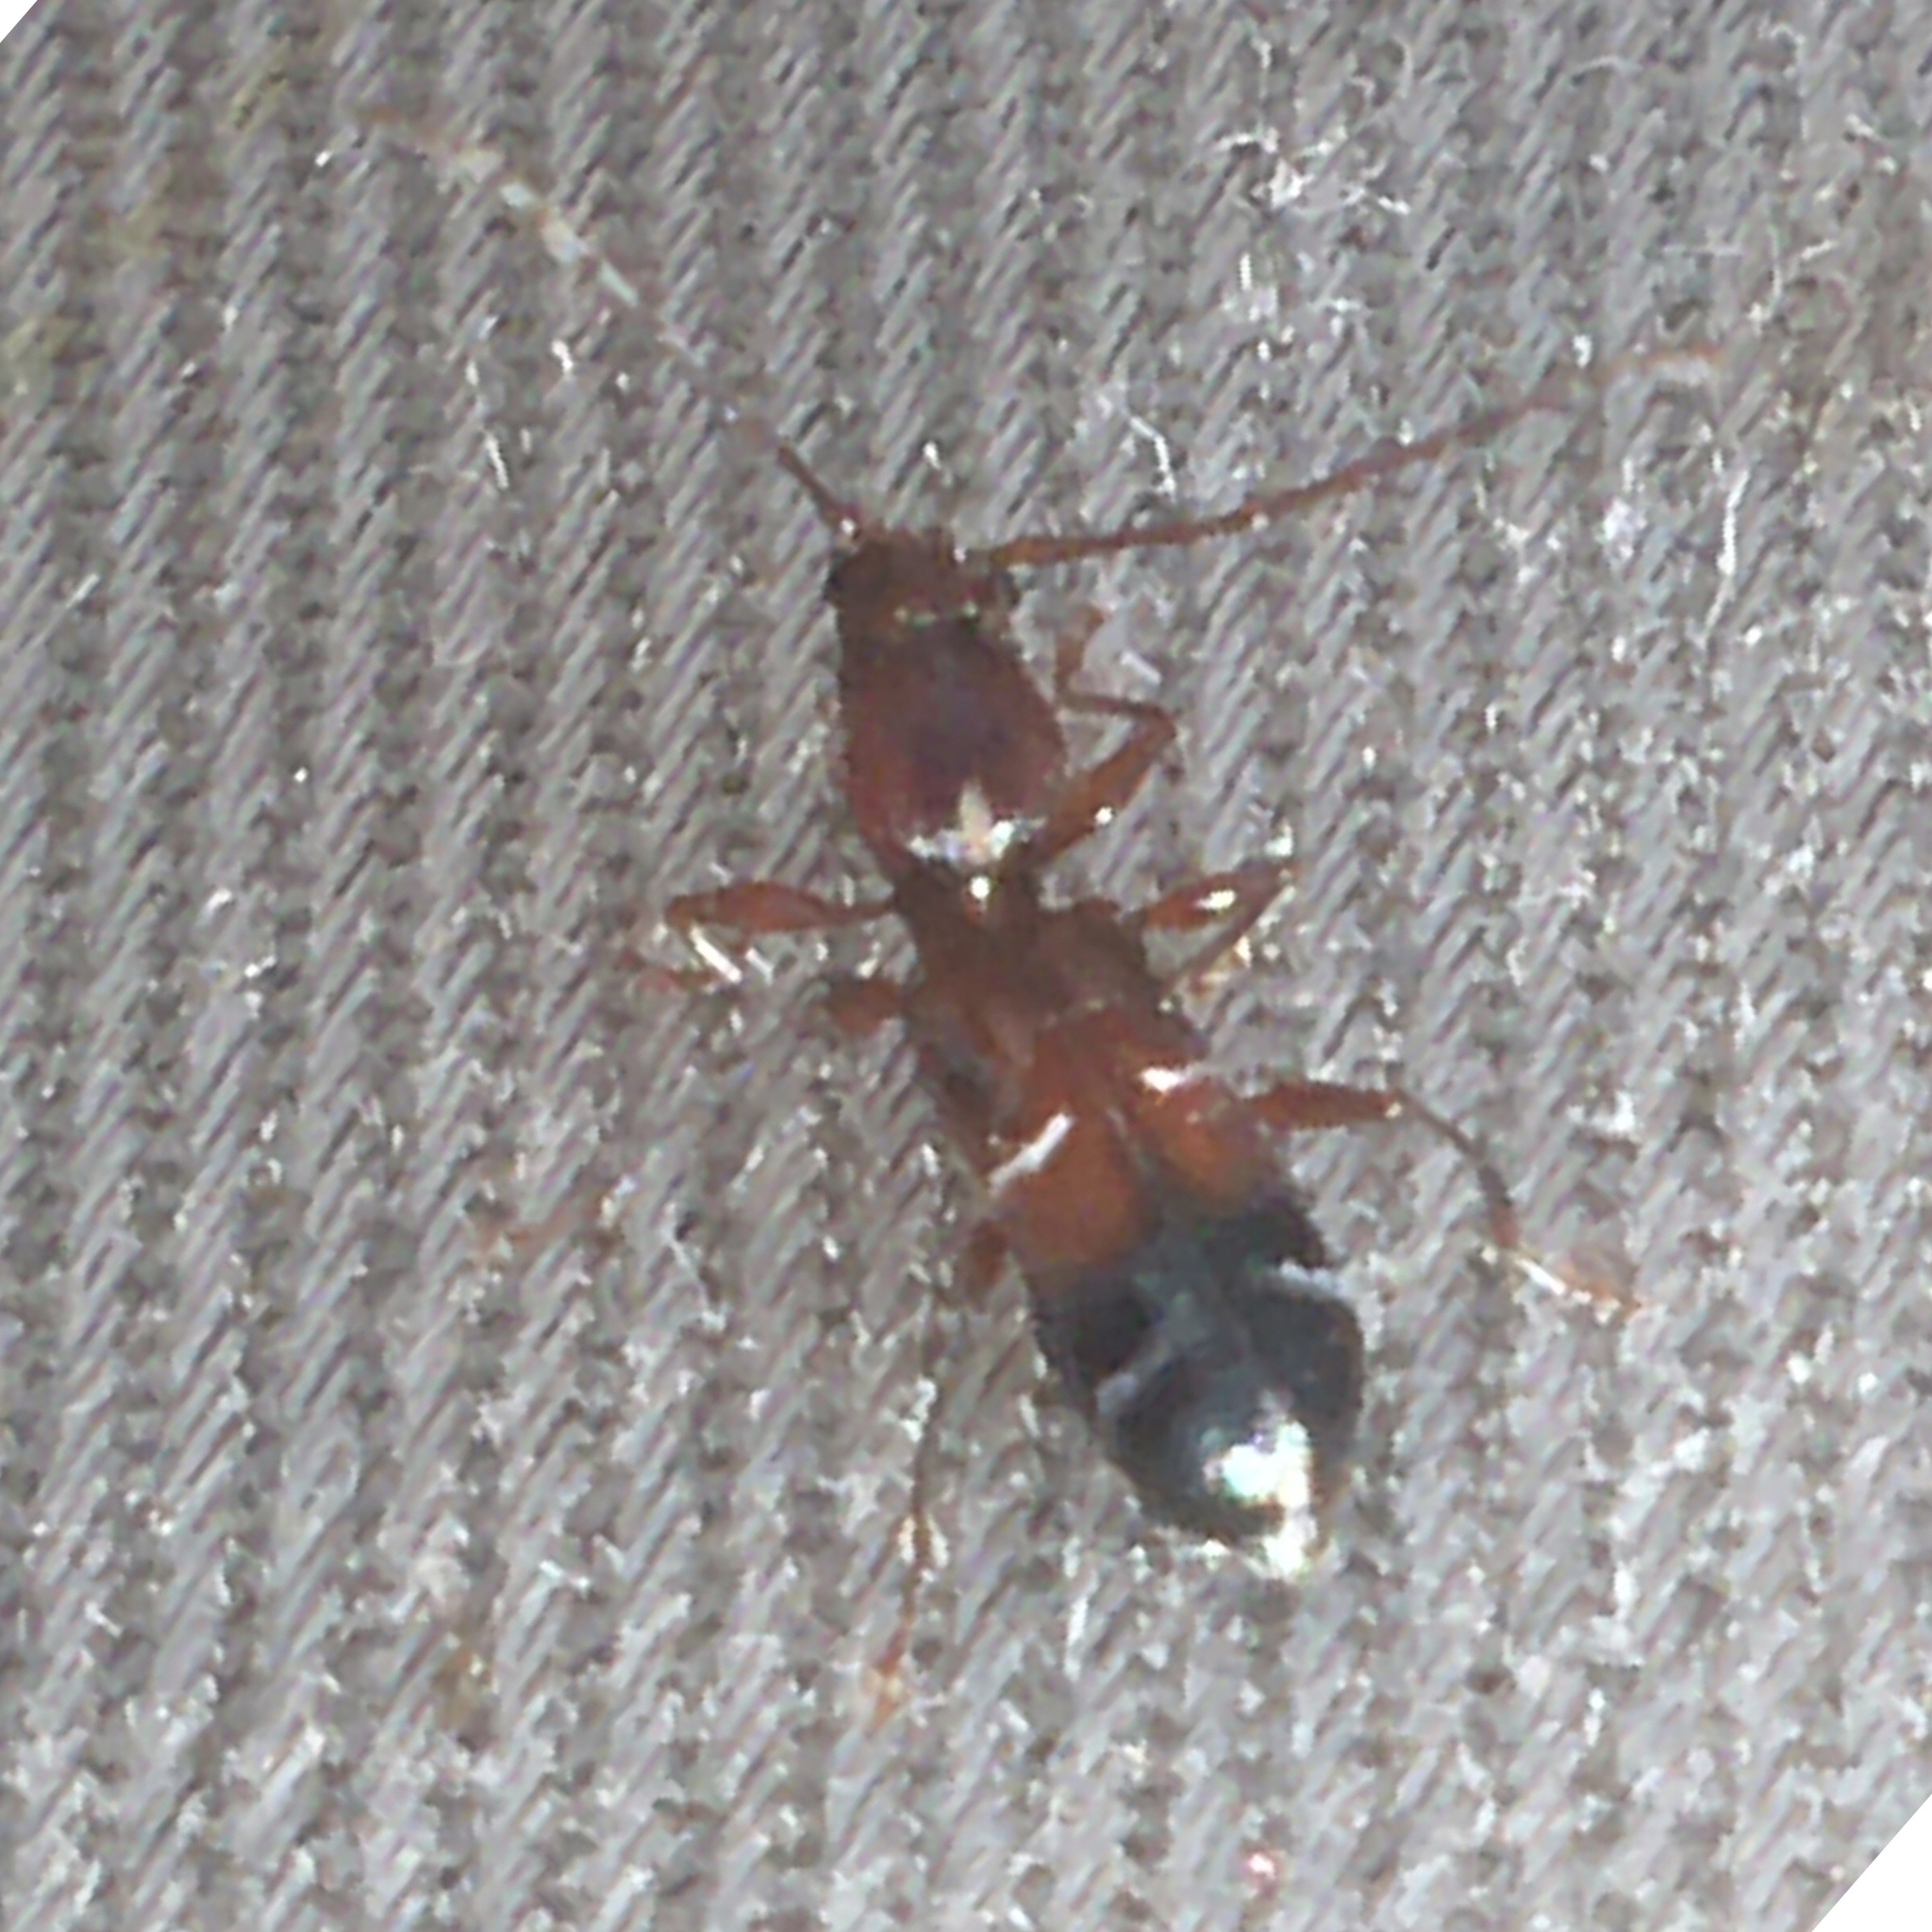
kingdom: Animalia
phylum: Arthropoda
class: Insecta
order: Coleoptera
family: Cerambycidae
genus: Euderces
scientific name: Euderces pini
